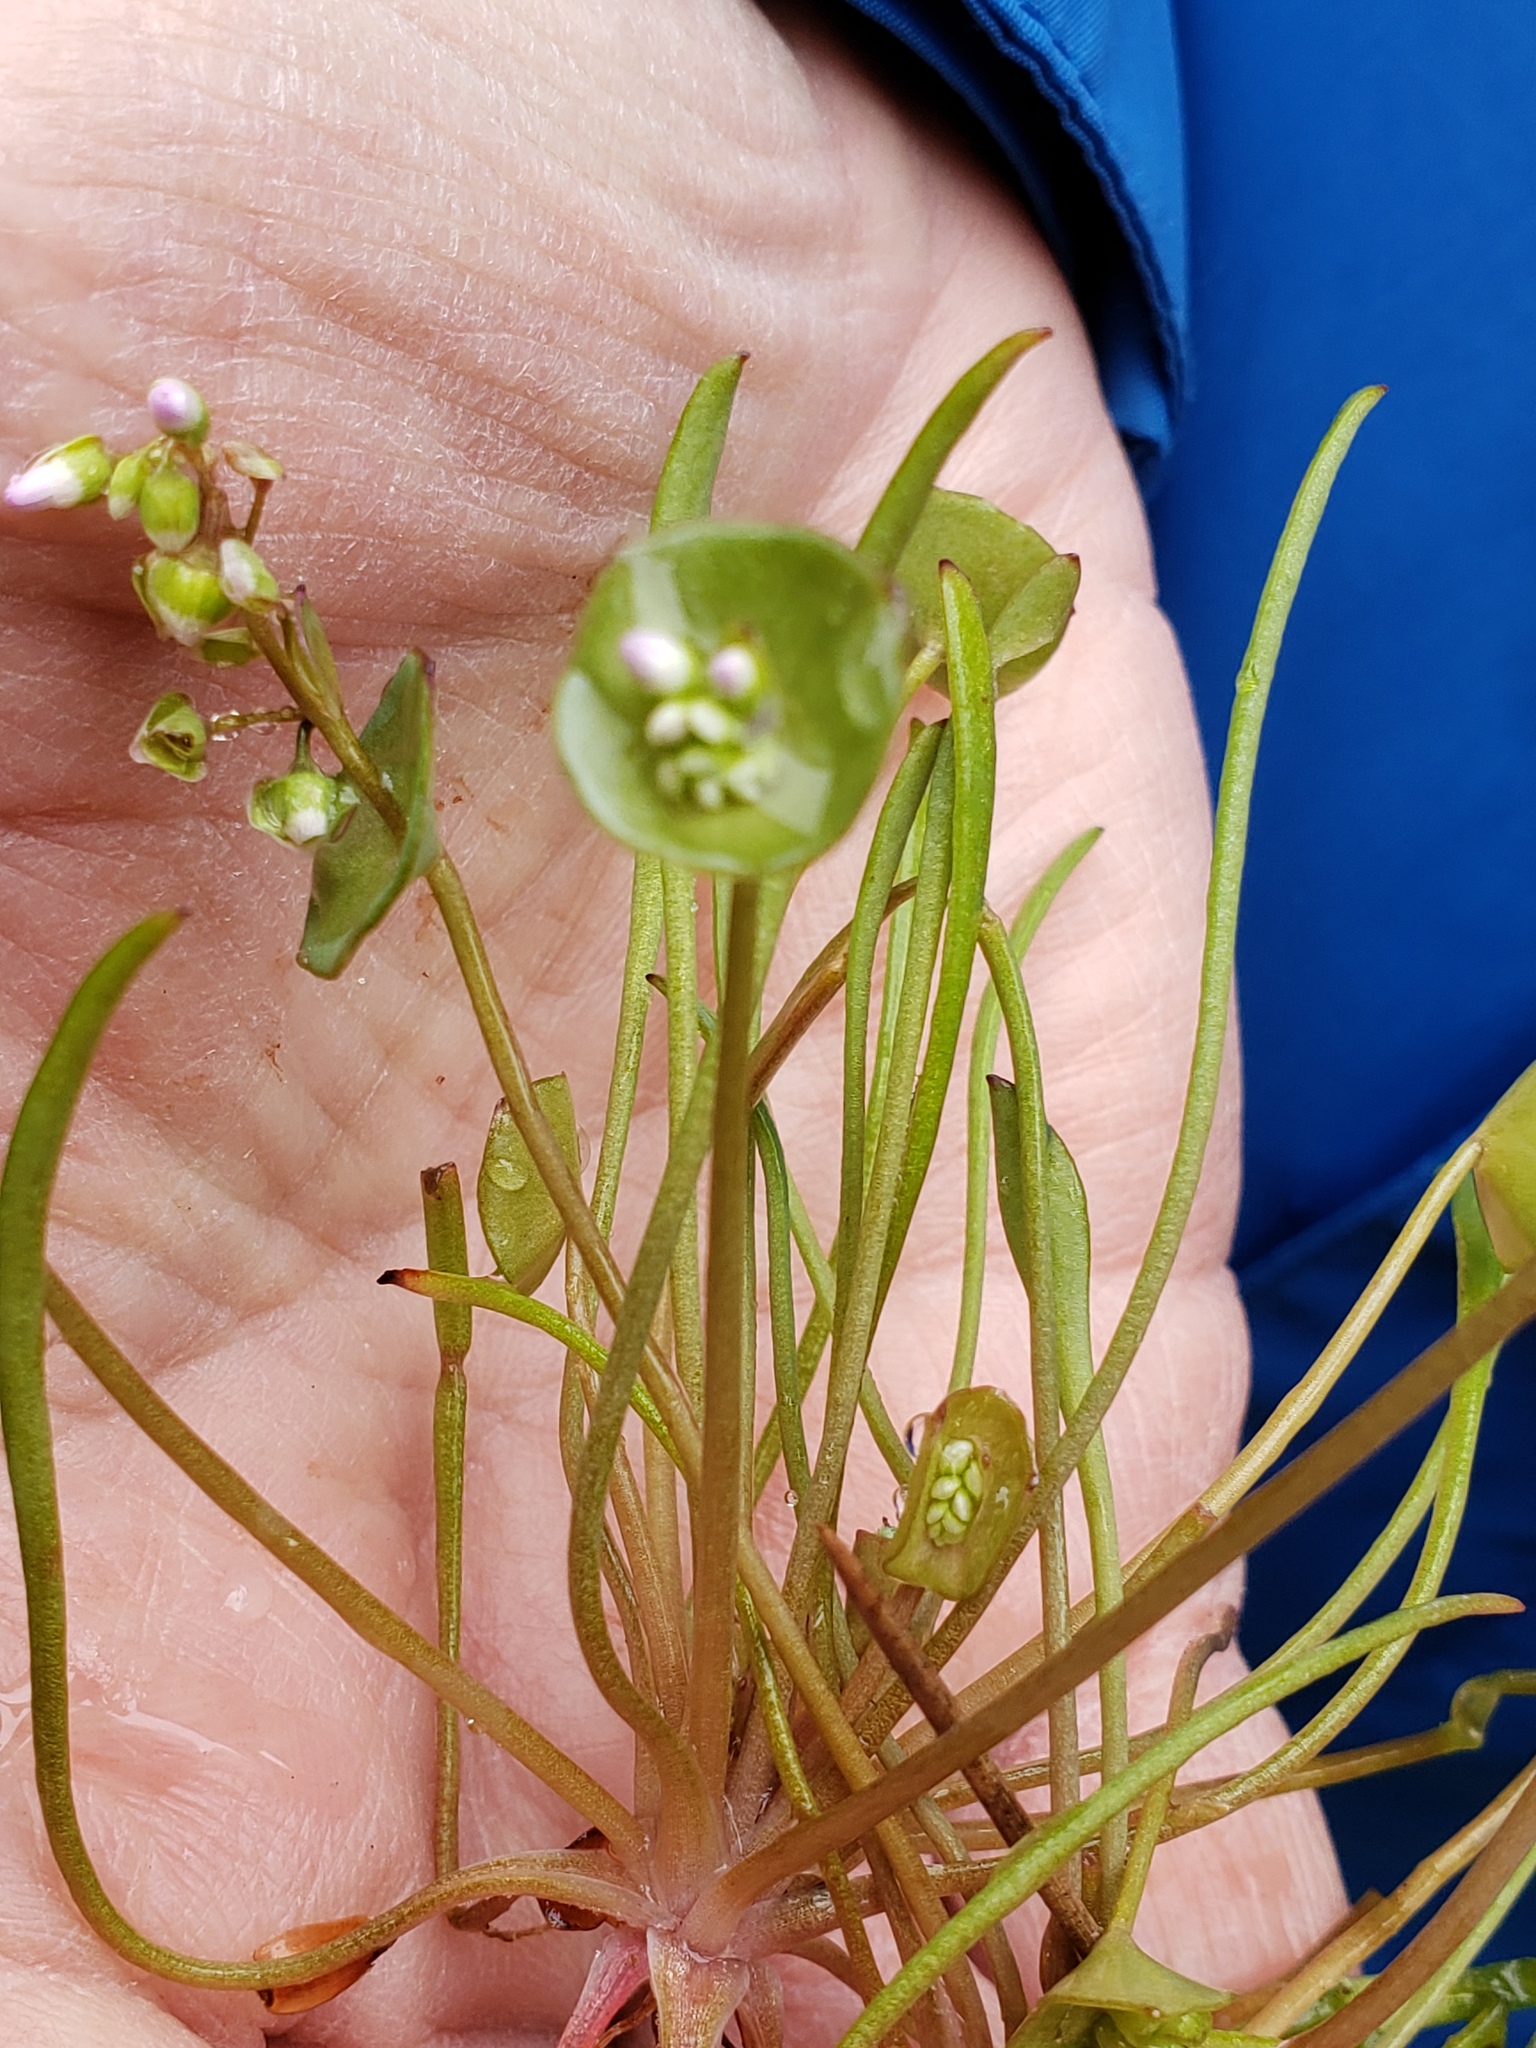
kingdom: Plantae
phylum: Tracheophyta
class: Magnoliopsida
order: Caryophyllales
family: Montiaceae
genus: Claytonia
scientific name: Claytonia parviflora
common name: Indian-lettuce
